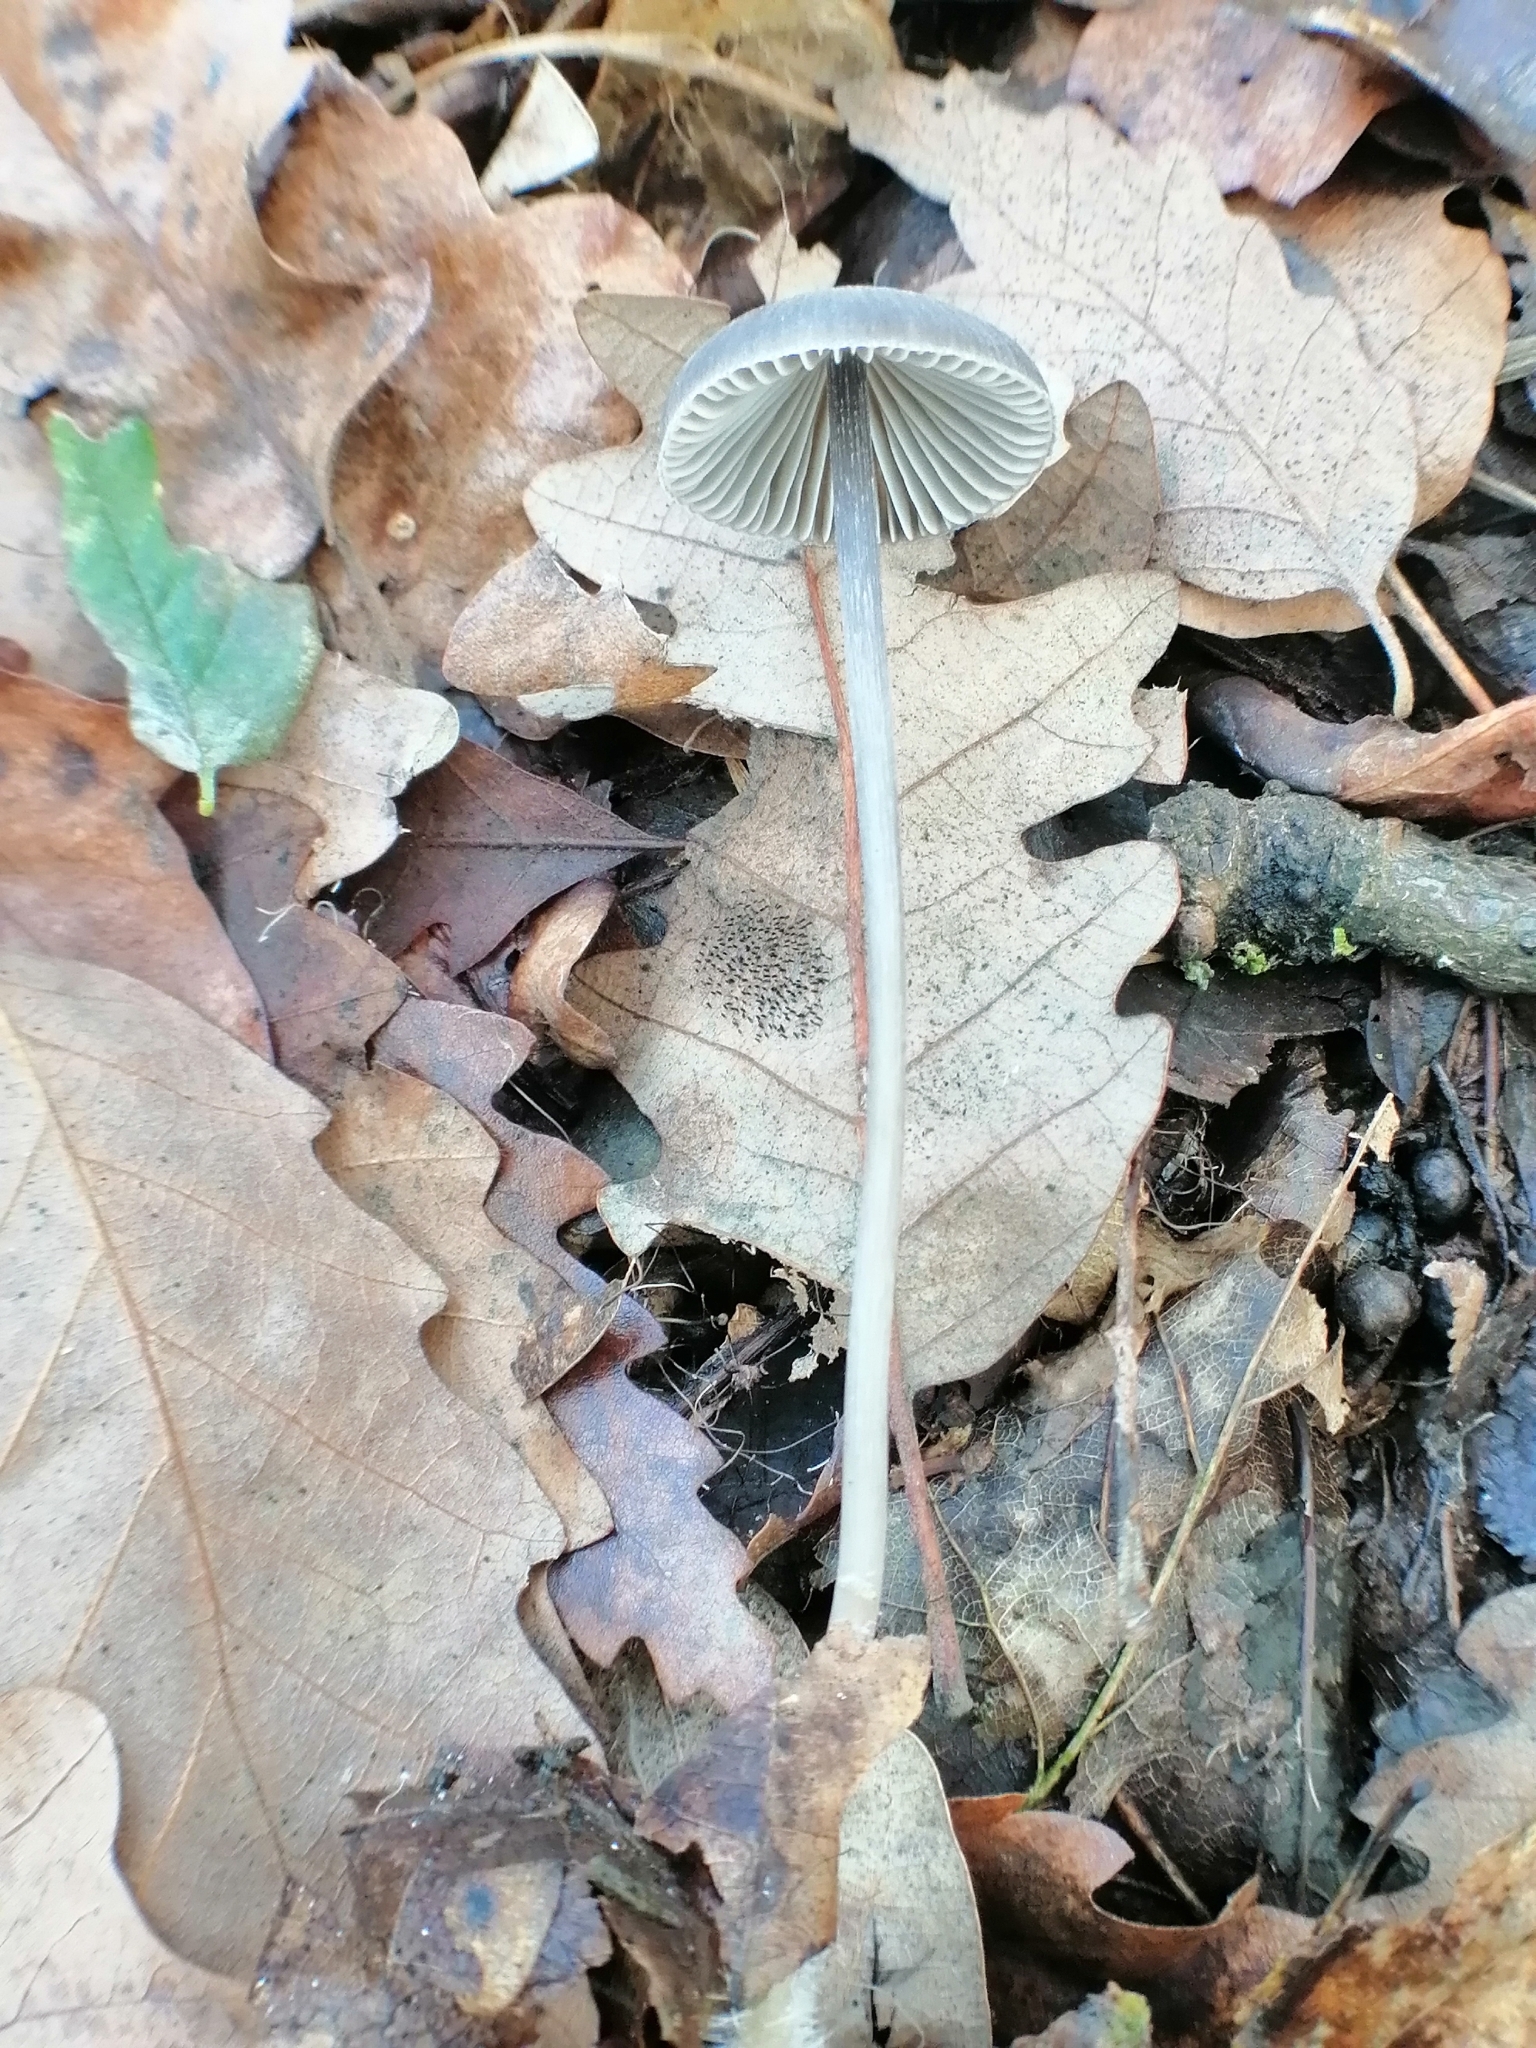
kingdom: Fungi
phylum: Basidiomycota
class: Agaricomycetes
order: Agaricales
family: Mycenaceae
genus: Mycena
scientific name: Mycena polygramma
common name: Grooved bonnet
